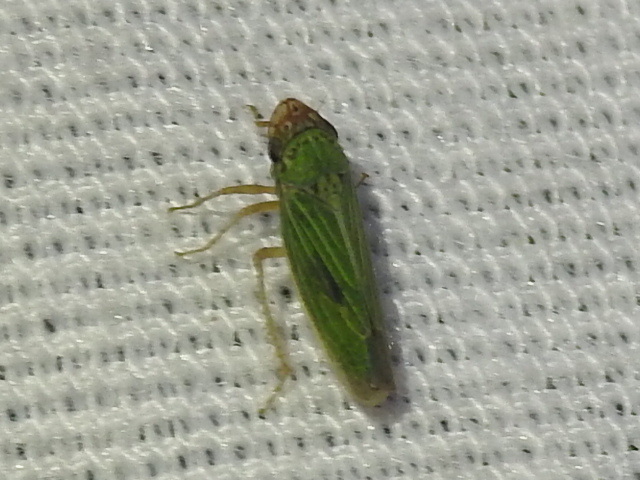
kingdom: Animalia
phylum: Arthropoda
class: Insecta
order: Hemiptera
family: Cicadellidae
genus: Xyphon
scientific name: Xyphon reticulatum
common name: Planthopper
